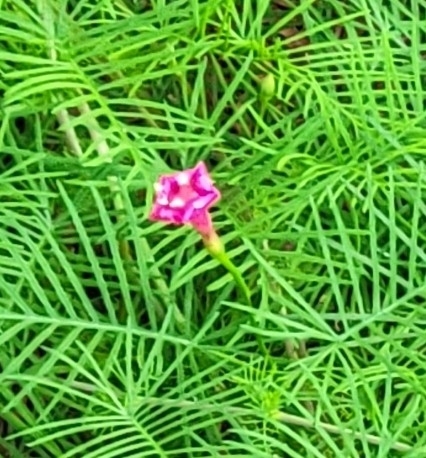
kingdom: Plantae
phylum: Tracheophyta
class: Magnoliopsida
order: Solanales
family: Convolvulaceae
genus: Ipomoea
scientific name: Ipomoea quamoclit
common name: Cypress vine
